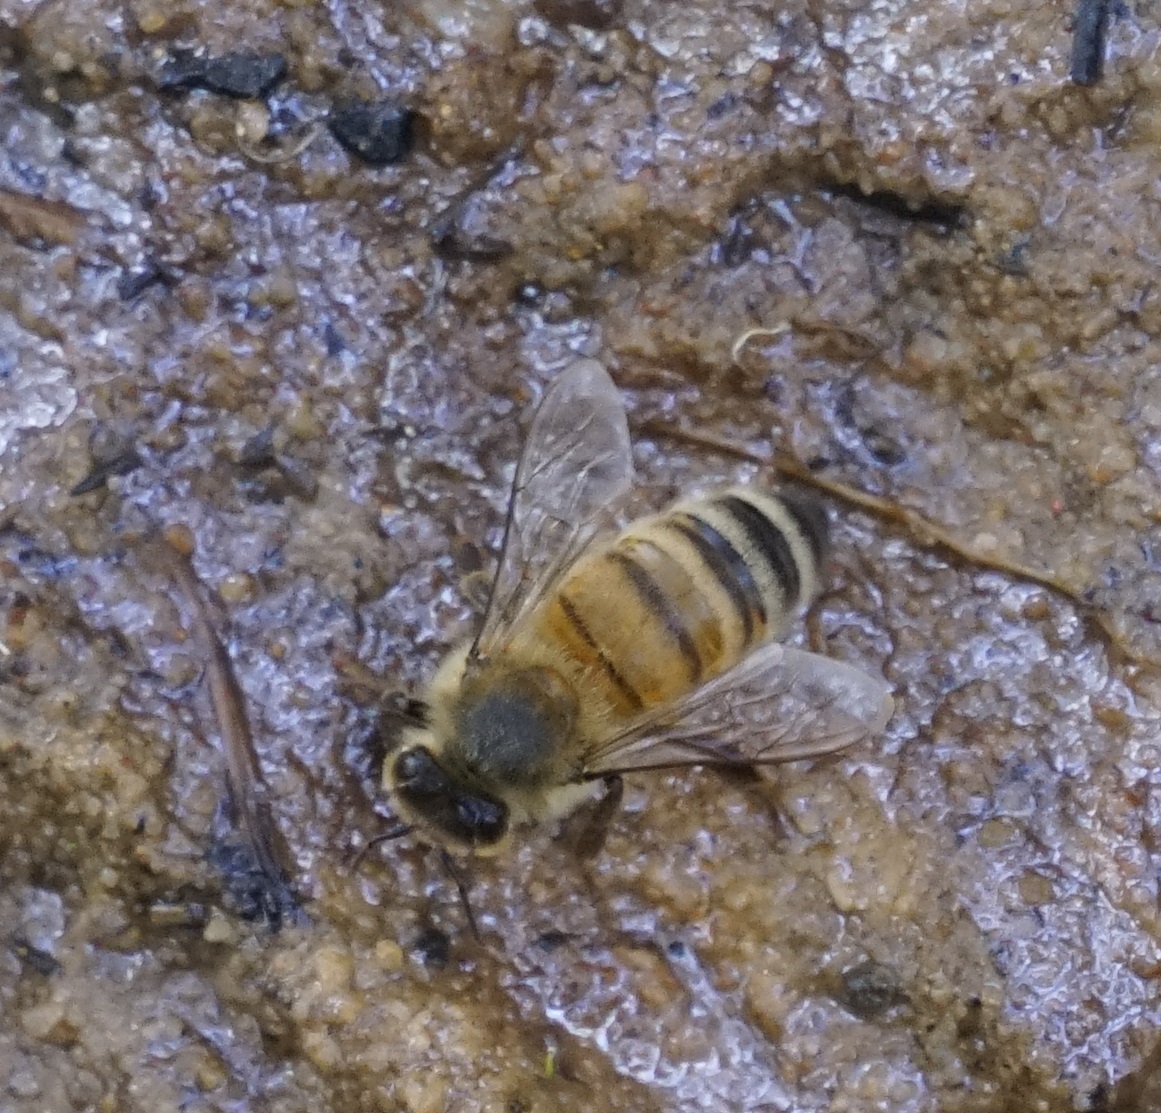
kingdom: Animalia
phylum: Arthropoda
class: Insecta
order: Hymenoptera
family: Apidae
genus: Apis
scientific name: Apis mellifera
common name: Honey bee
